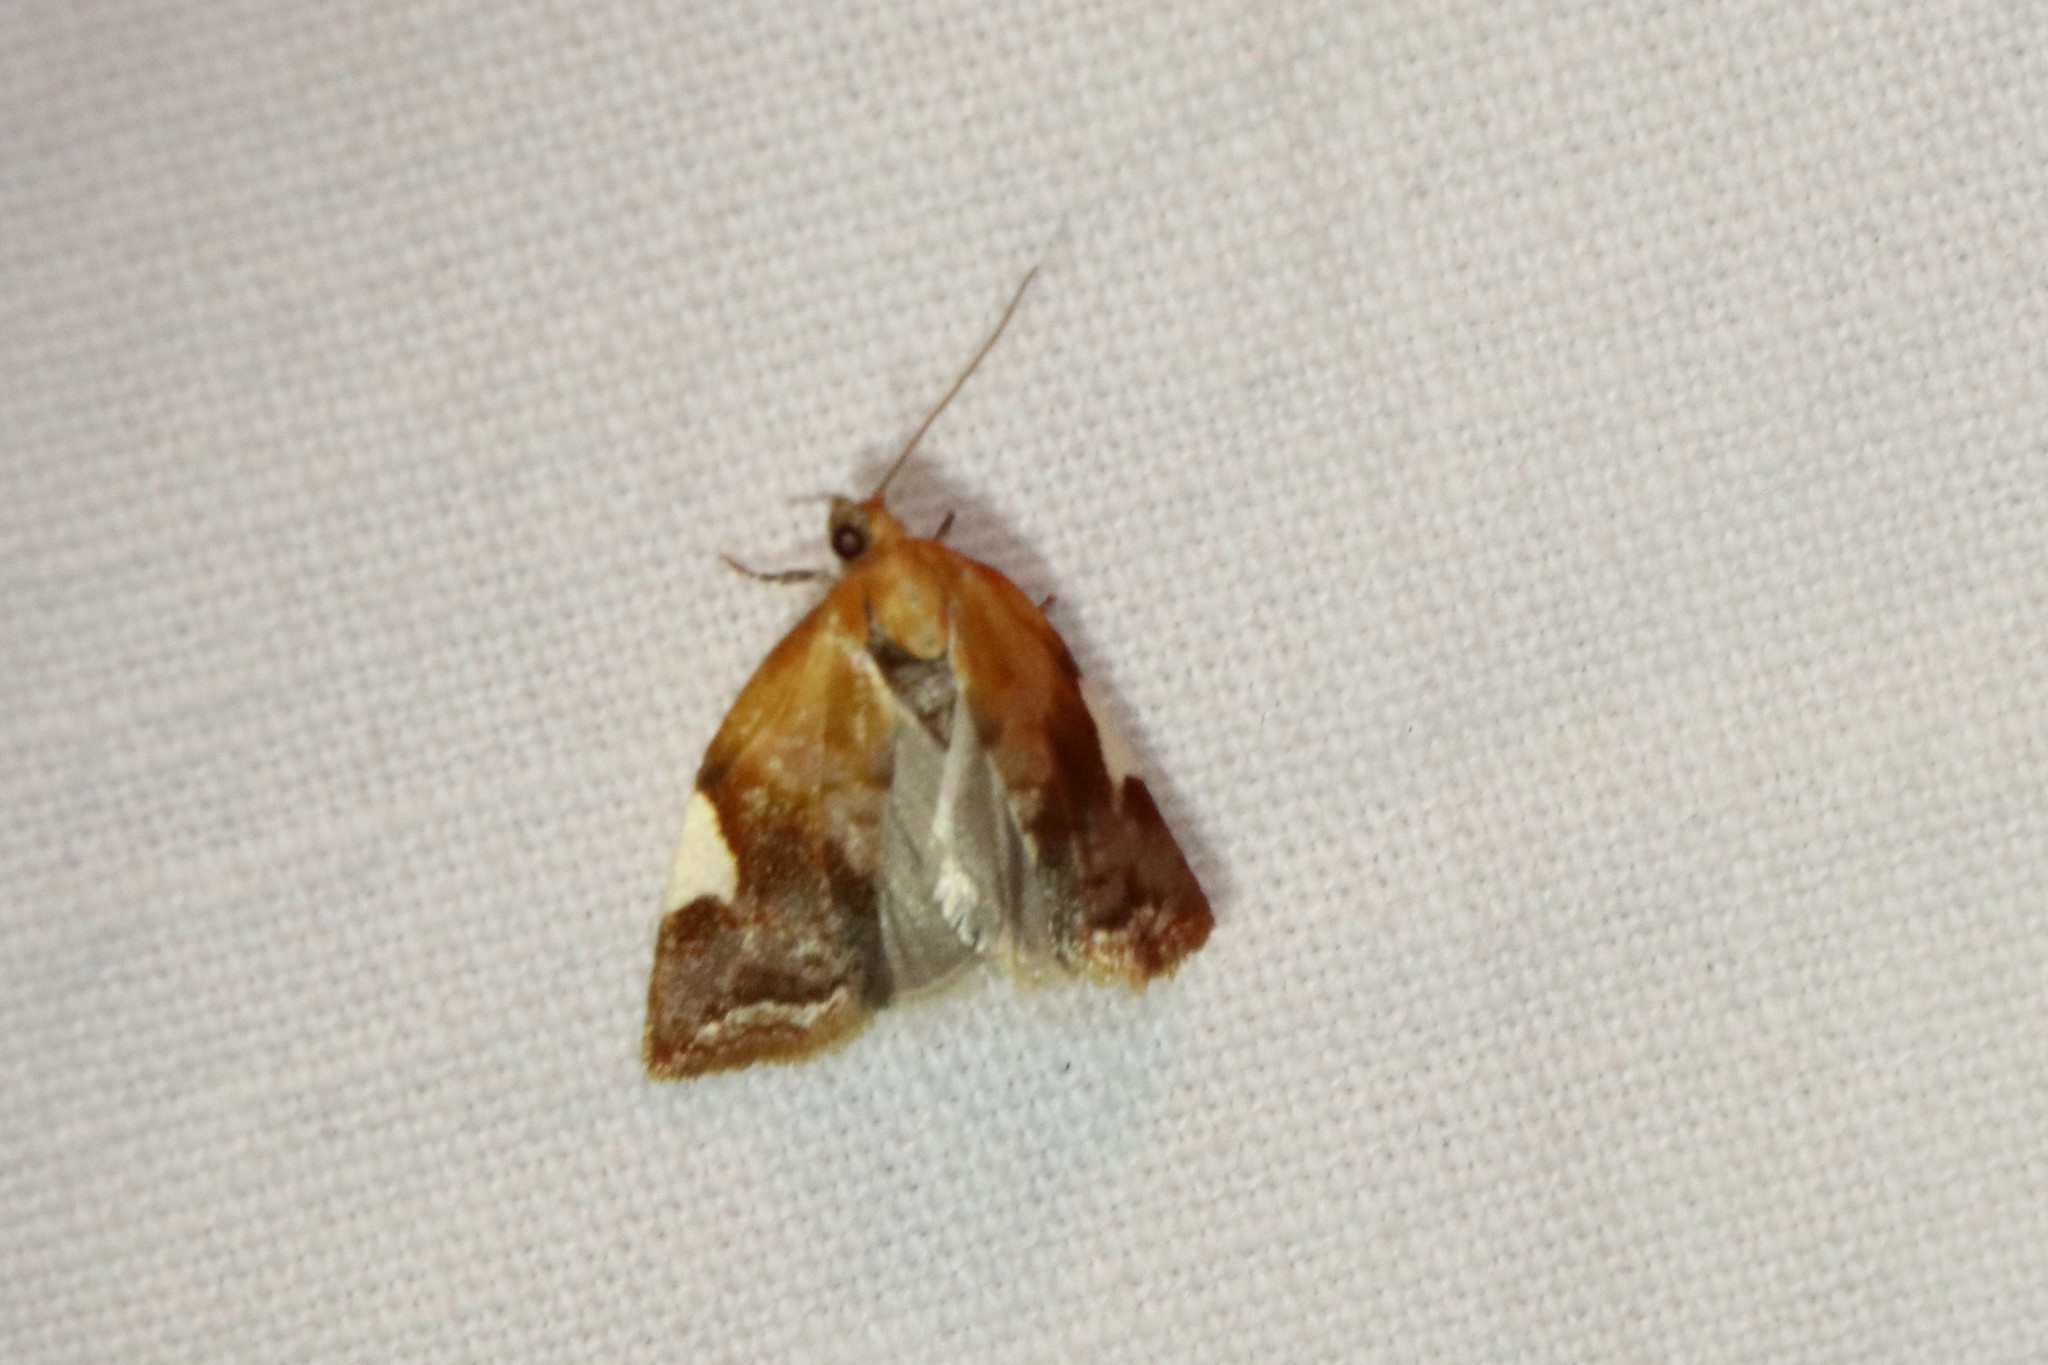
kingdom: Animalia
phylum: Arthropoda
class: Insecta
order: Lepidoptera
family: Tortricidae
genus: Clepsis
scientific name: Clepsis persicana
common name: White triangle tortrix
